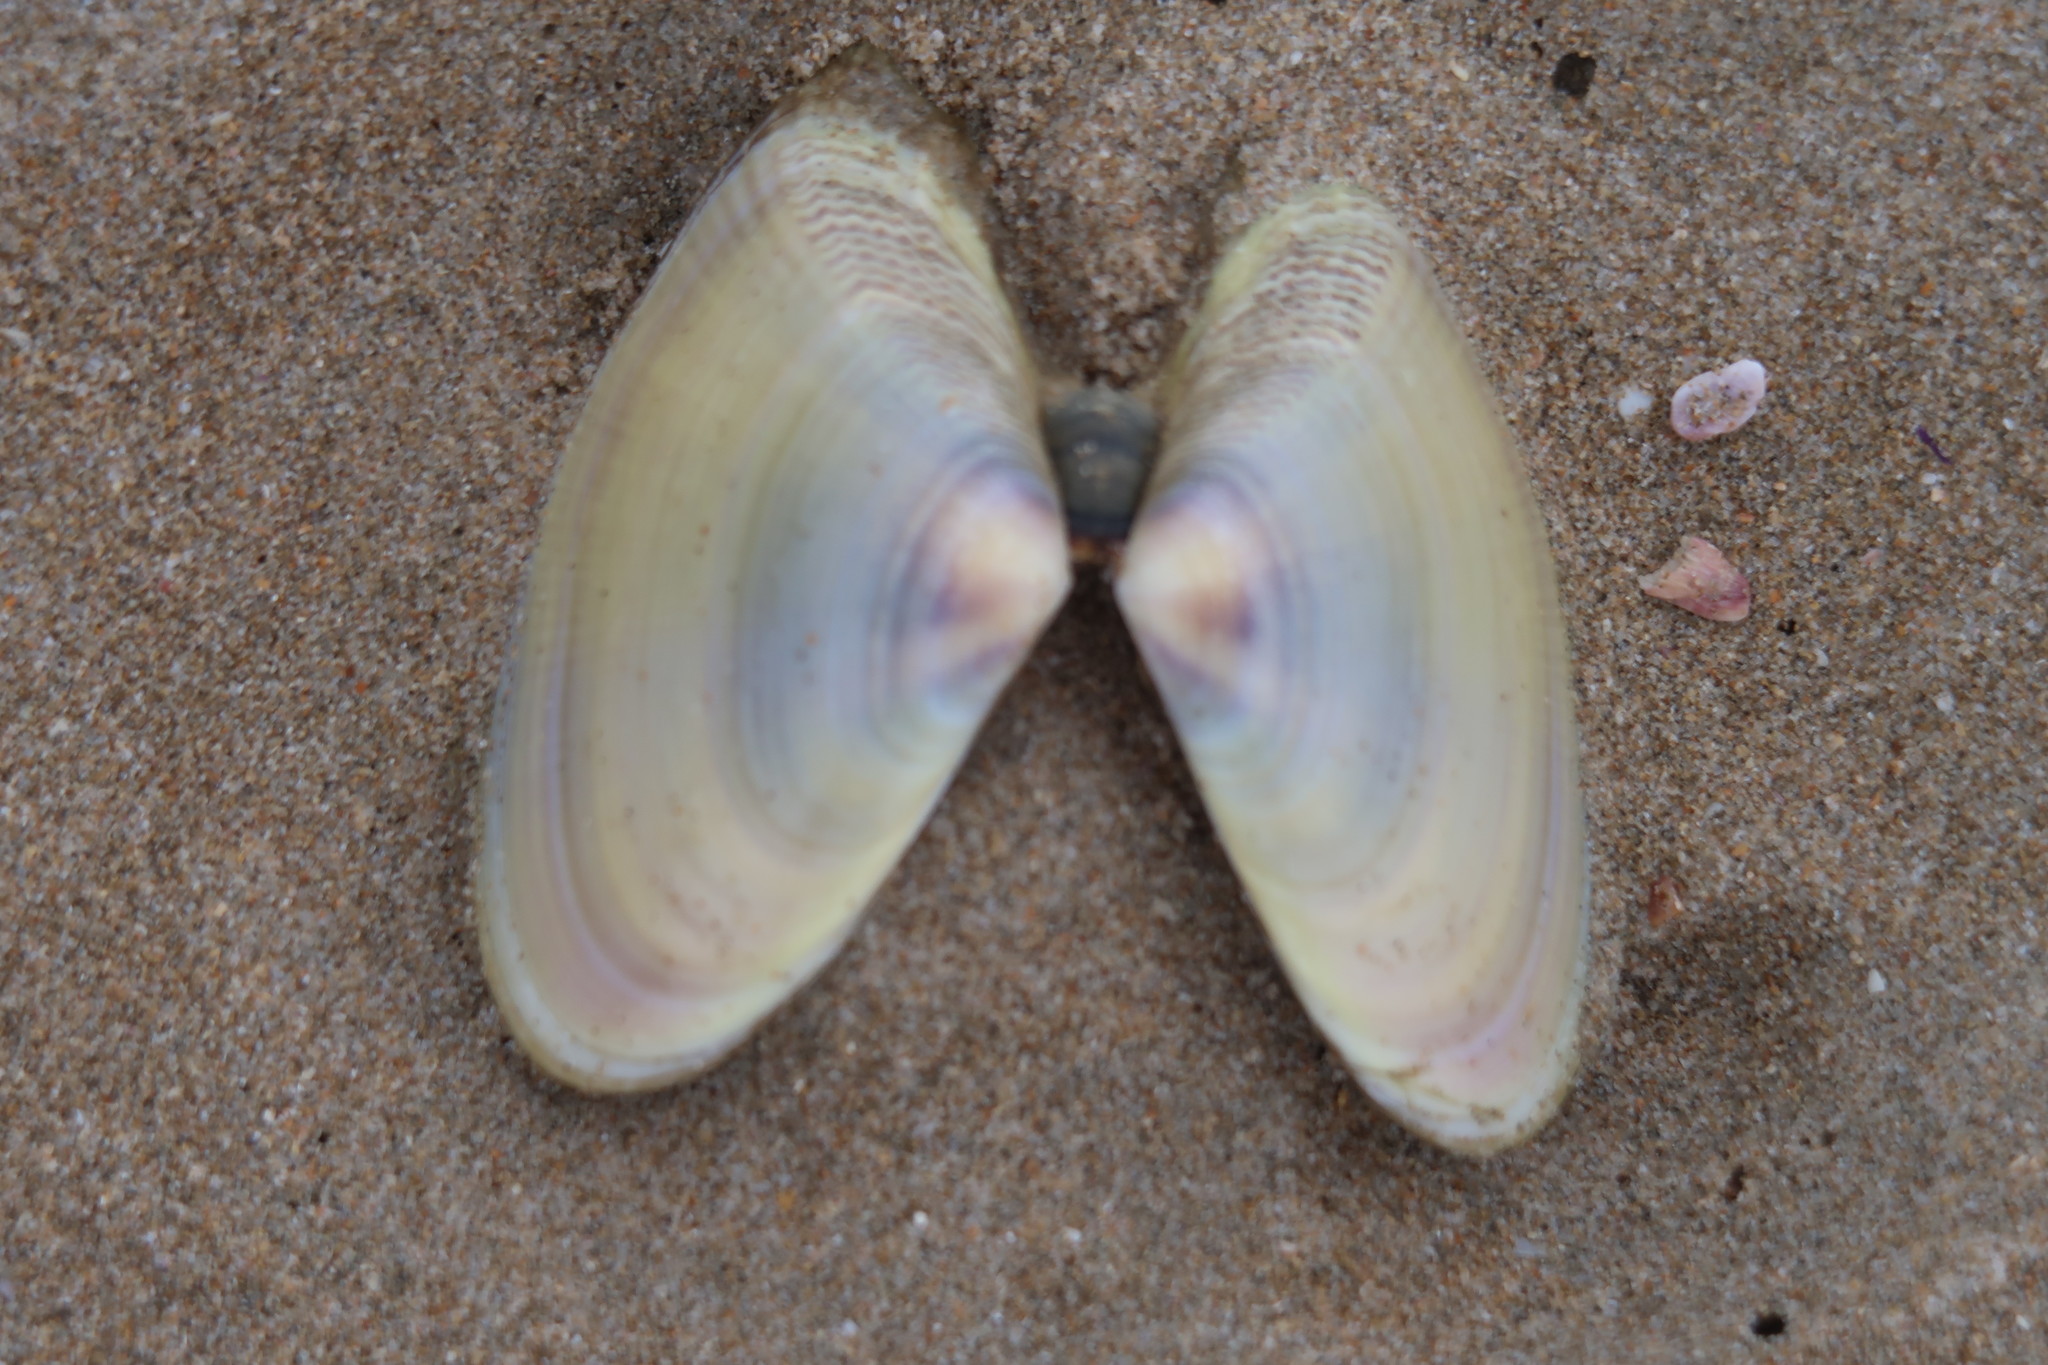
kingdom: Animalia
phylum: Mollusca
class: Bivalvia
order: Cardiida
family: Donacidae
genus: Donax
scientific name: Donax serra
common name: Giant south african wedge clam
